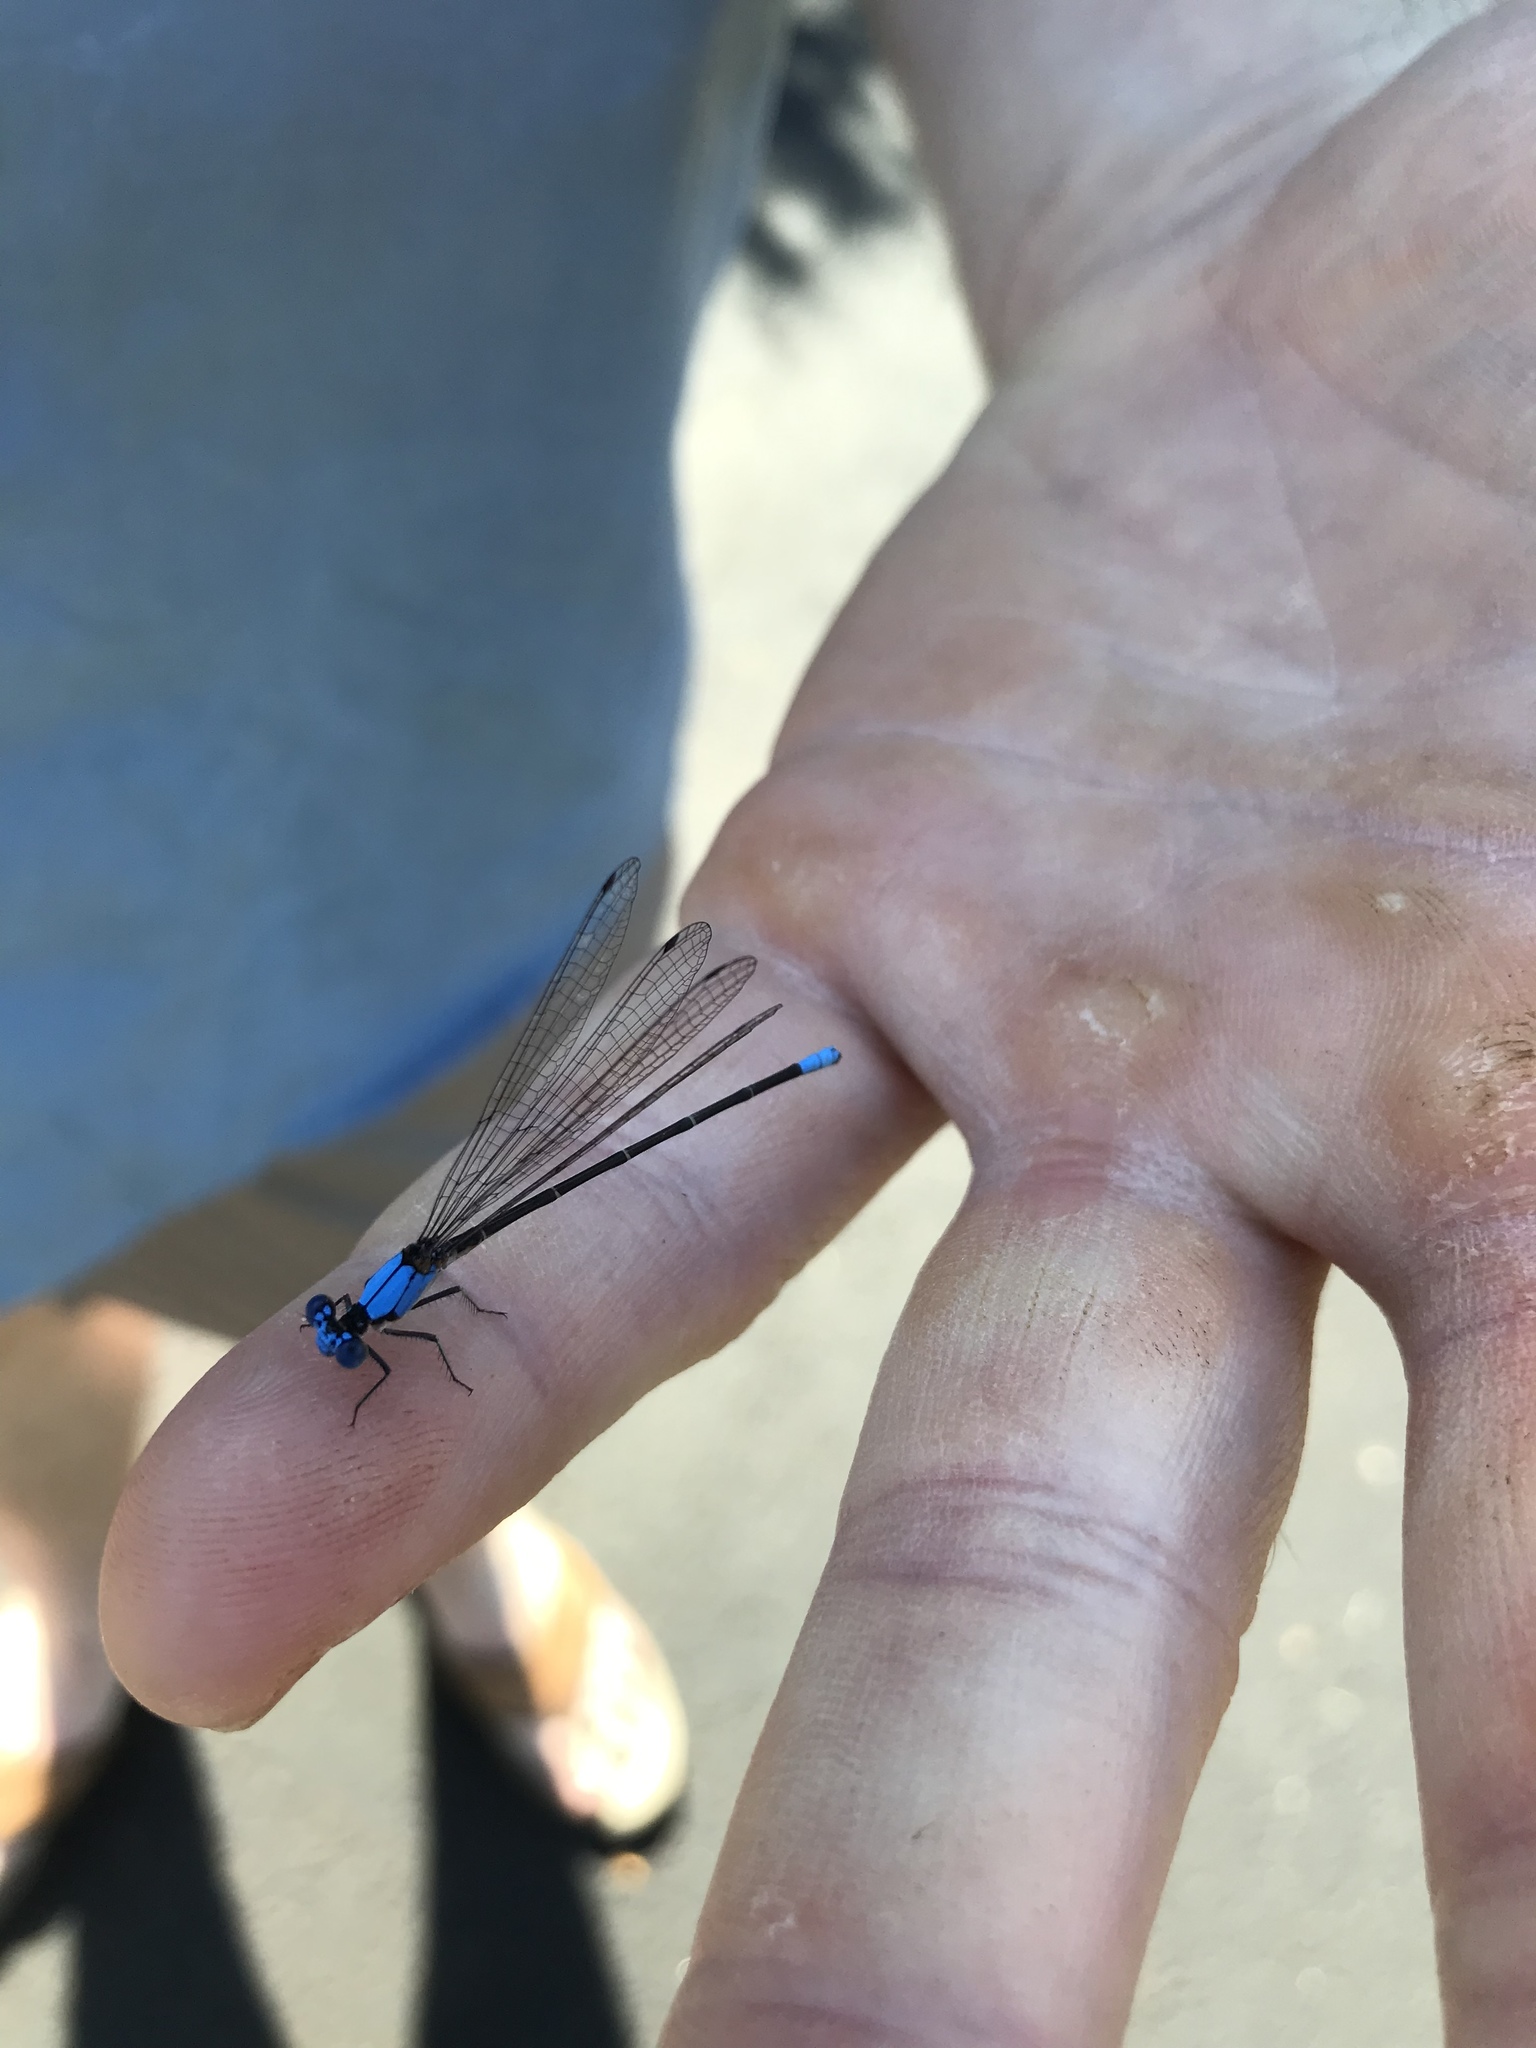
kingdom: Animalia
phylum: Arthropoda
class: Insecta
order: Odonata
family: Coenagrionidae
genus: Argia
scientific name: Argia apicalis
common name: Blue-fronted dancer
